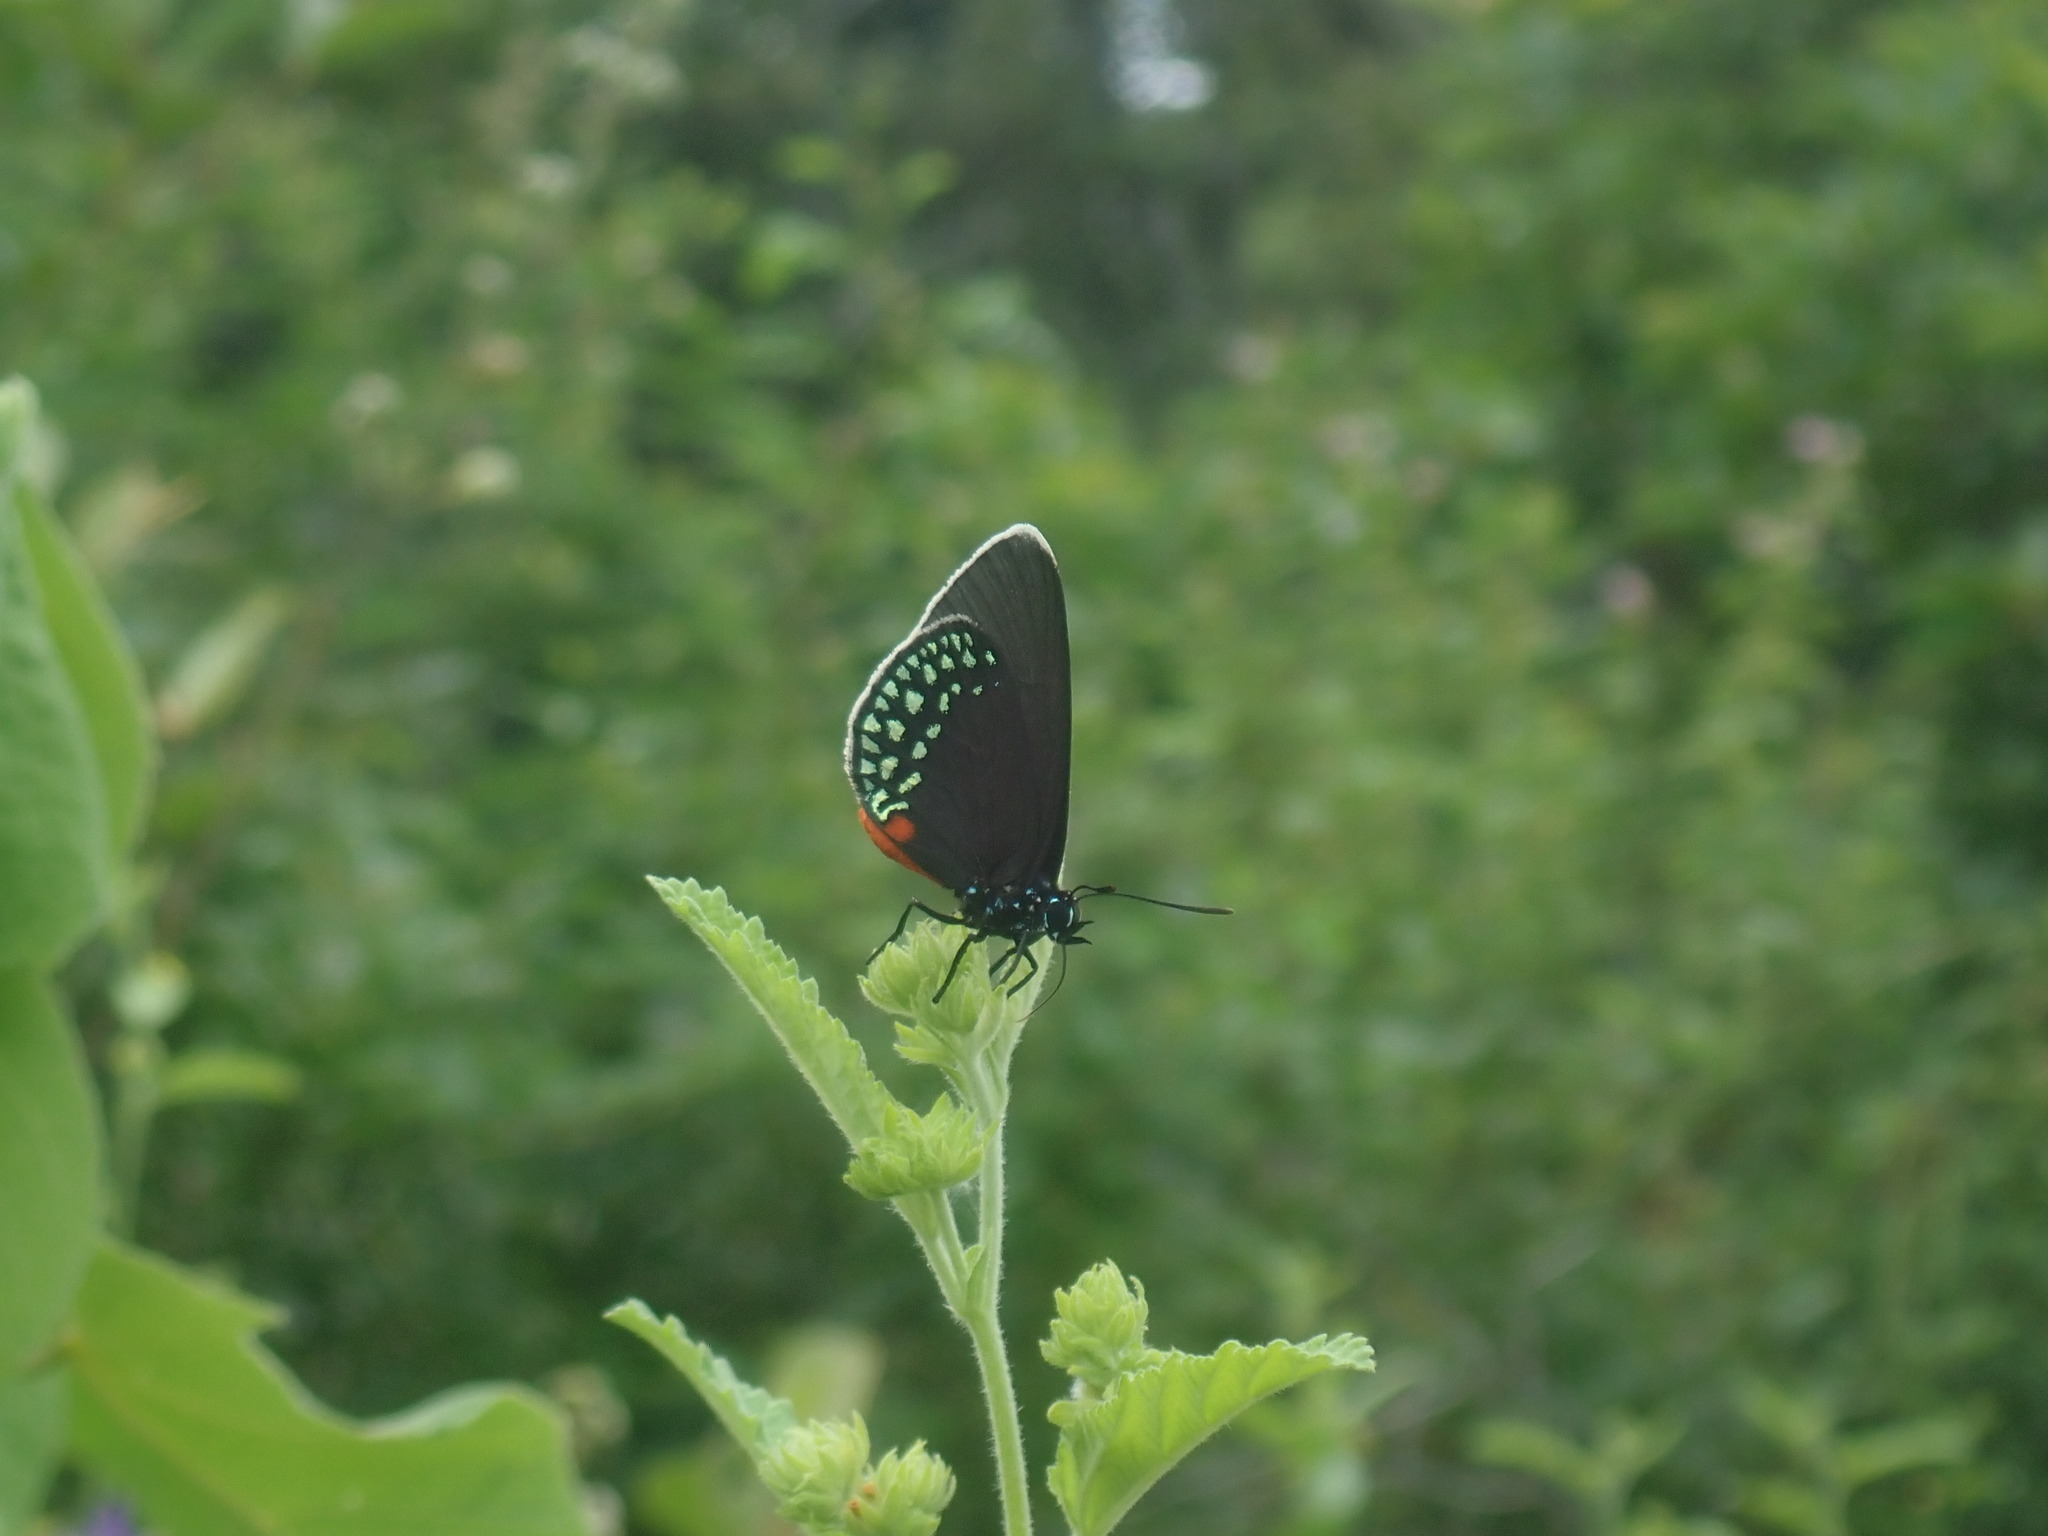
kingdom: Animalia
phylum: Arthropoda
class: Insecta
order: Lepidoptera
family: Lycaenidae
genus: Eumaeus
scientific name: Eumaeus toxea
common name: Mexican cycadian
